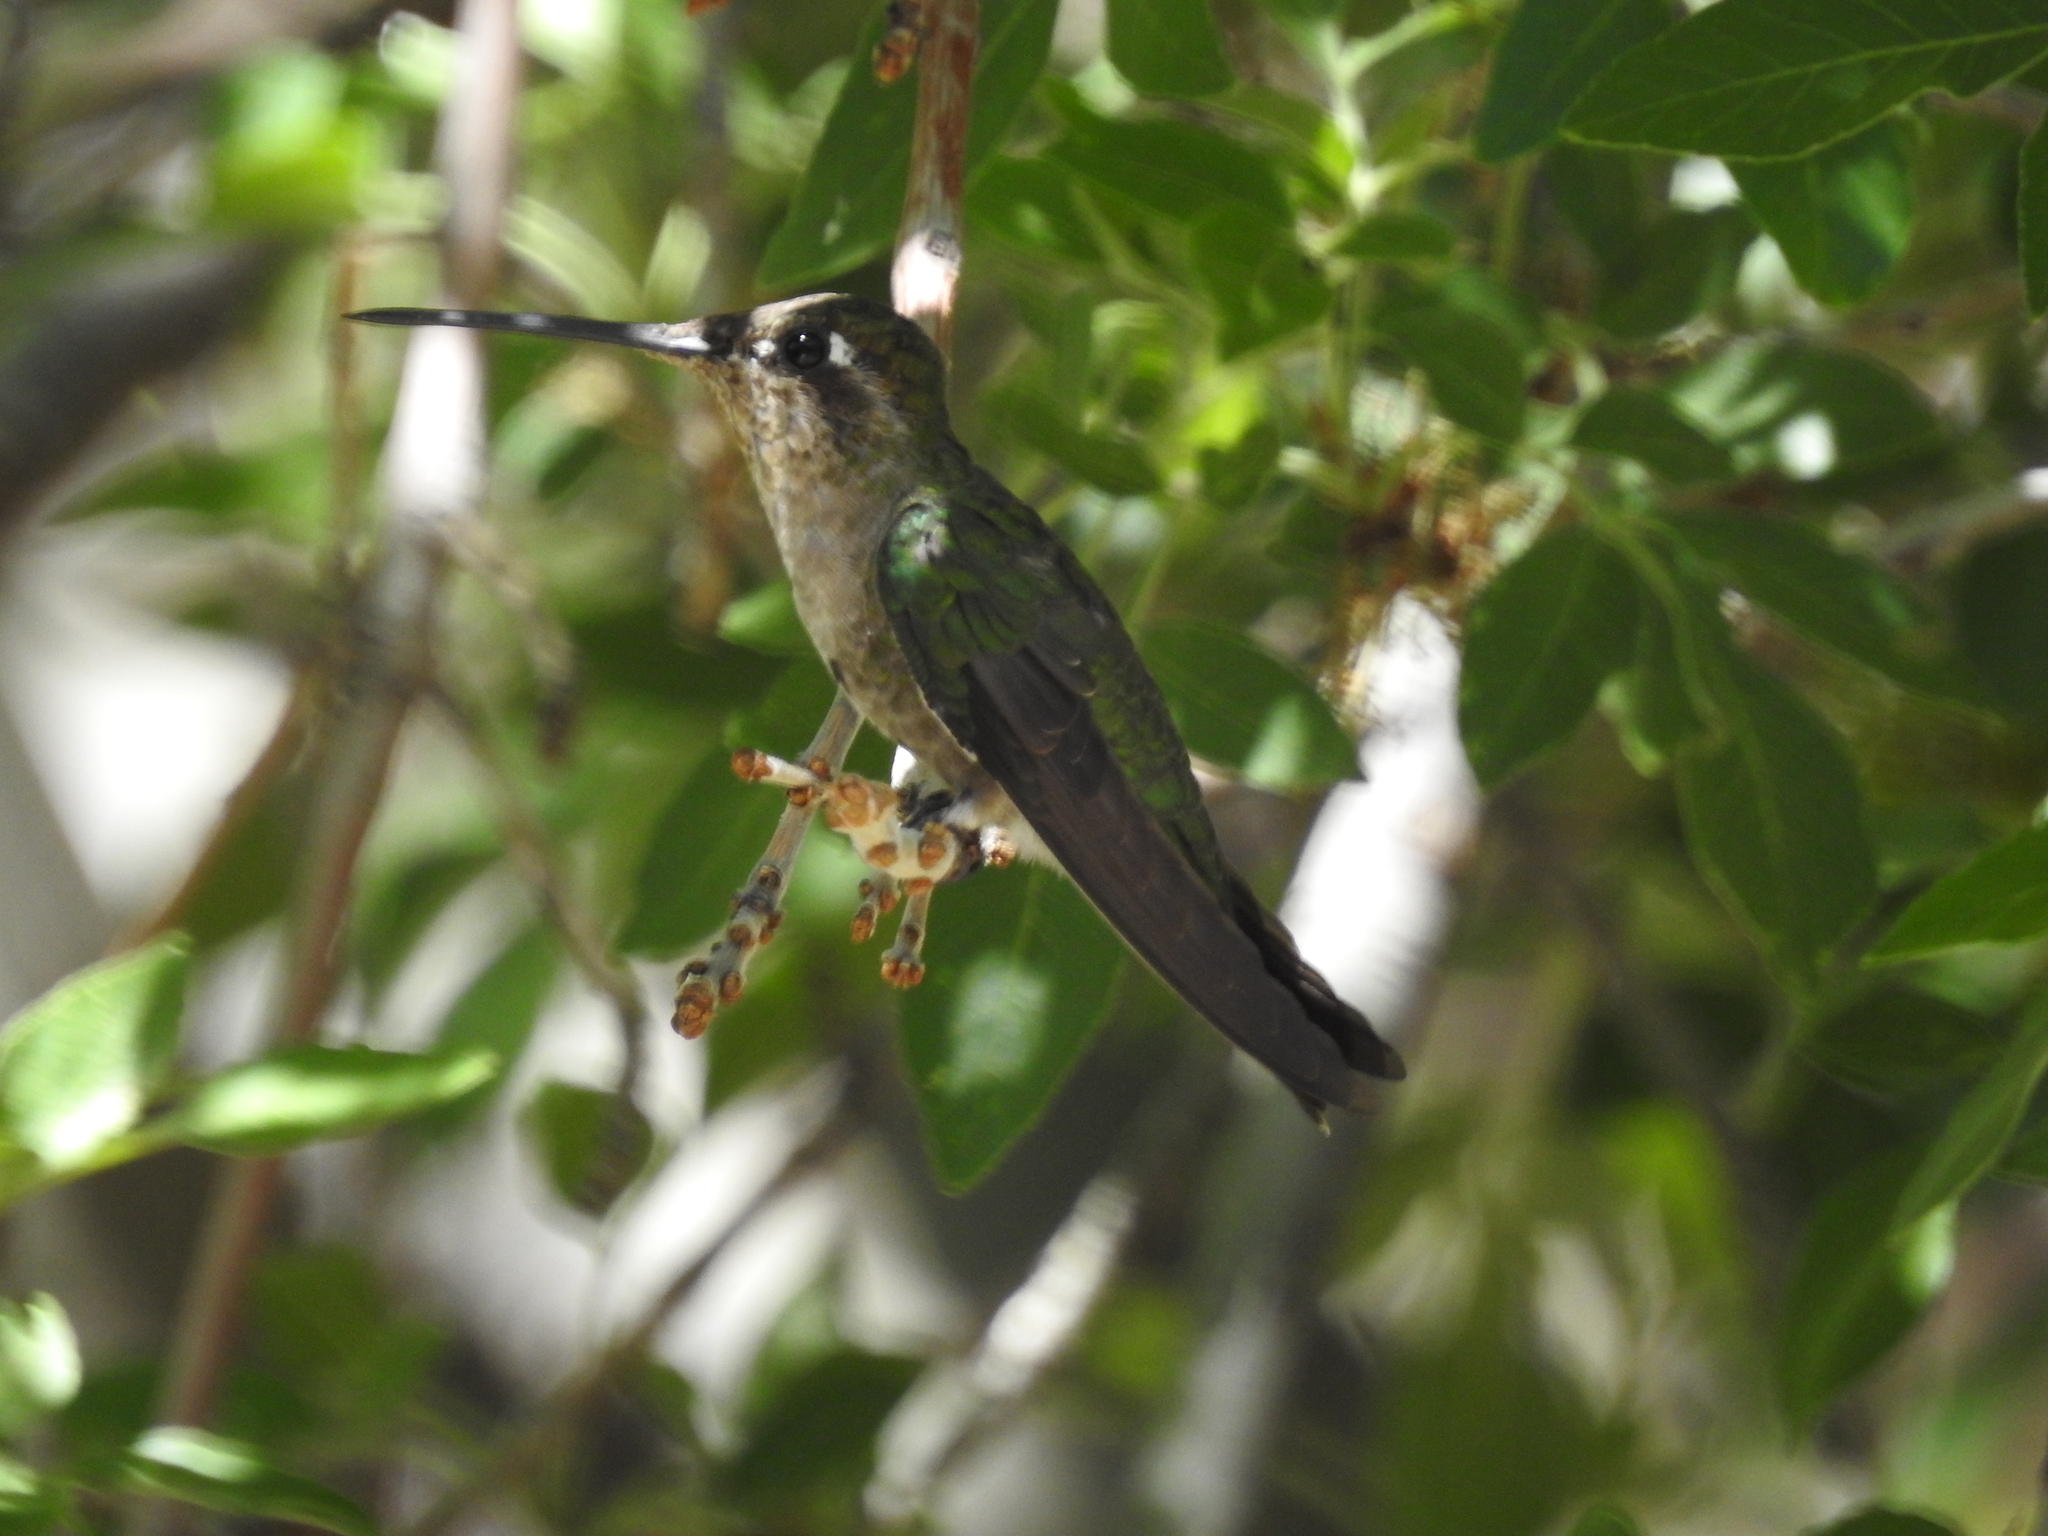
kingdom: Animalia
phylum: Chordata
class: Aves
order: Apodiformes
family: Trochilidae
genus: Eugenes
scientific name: Eugenes fulgens
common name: Magnificent hummingbird
